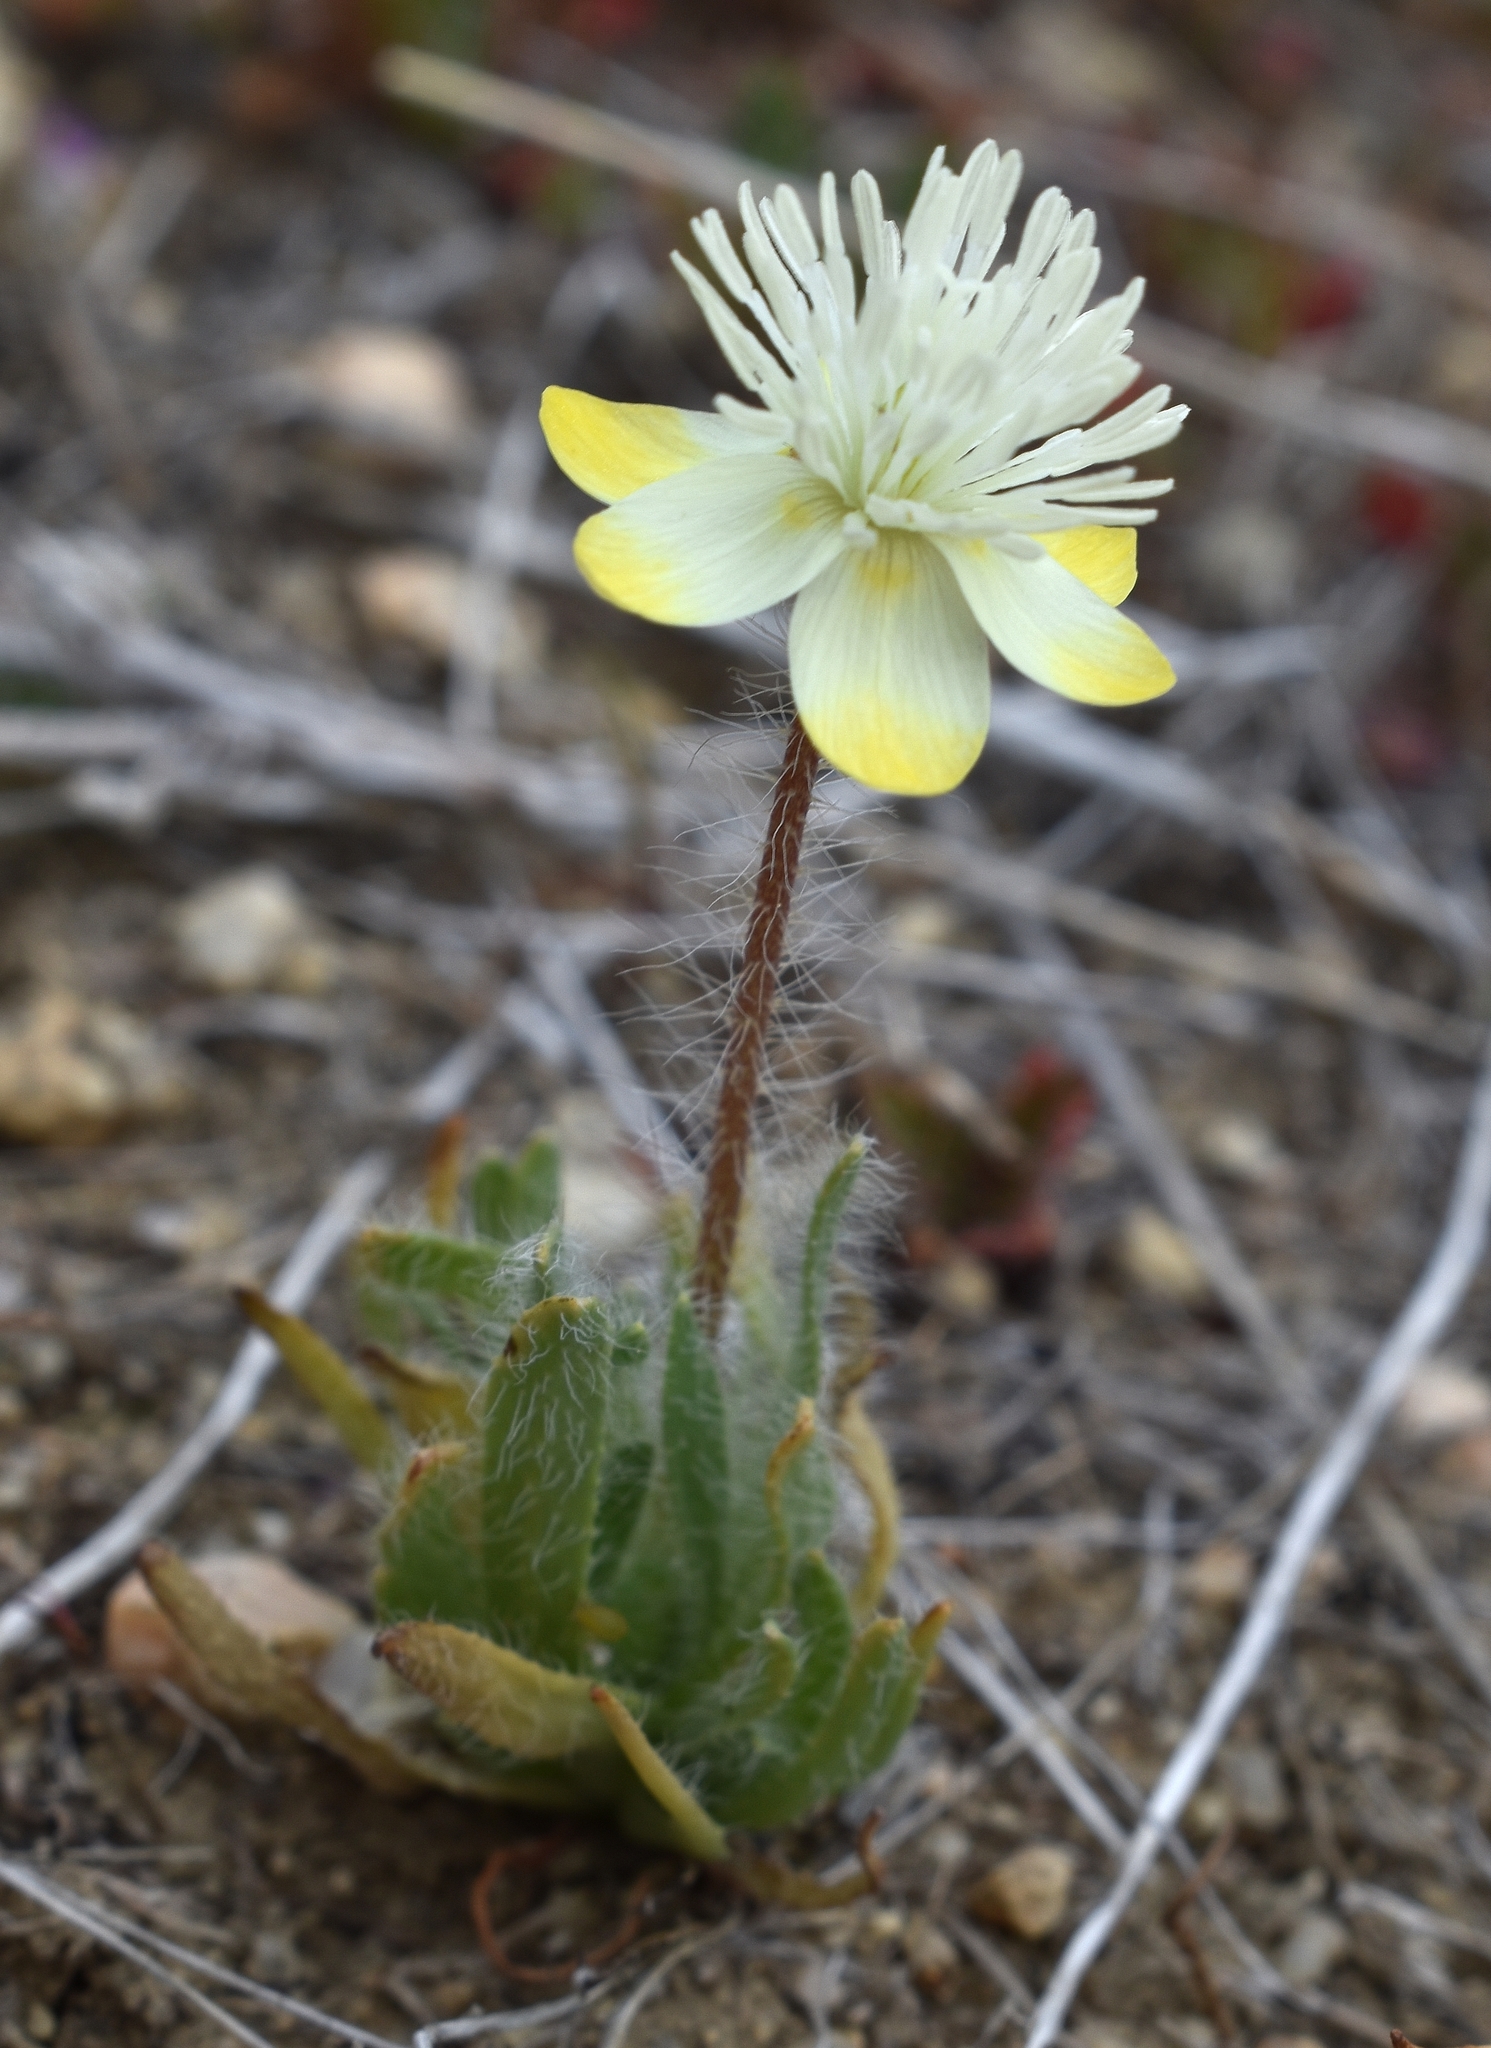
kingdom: Plantae
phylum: Tracheophyta
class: Magnoliopsida
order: Ranunculales
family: Papaveraceae
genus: Platystemon
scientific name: Platystemon californicus
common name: Cream-cups
